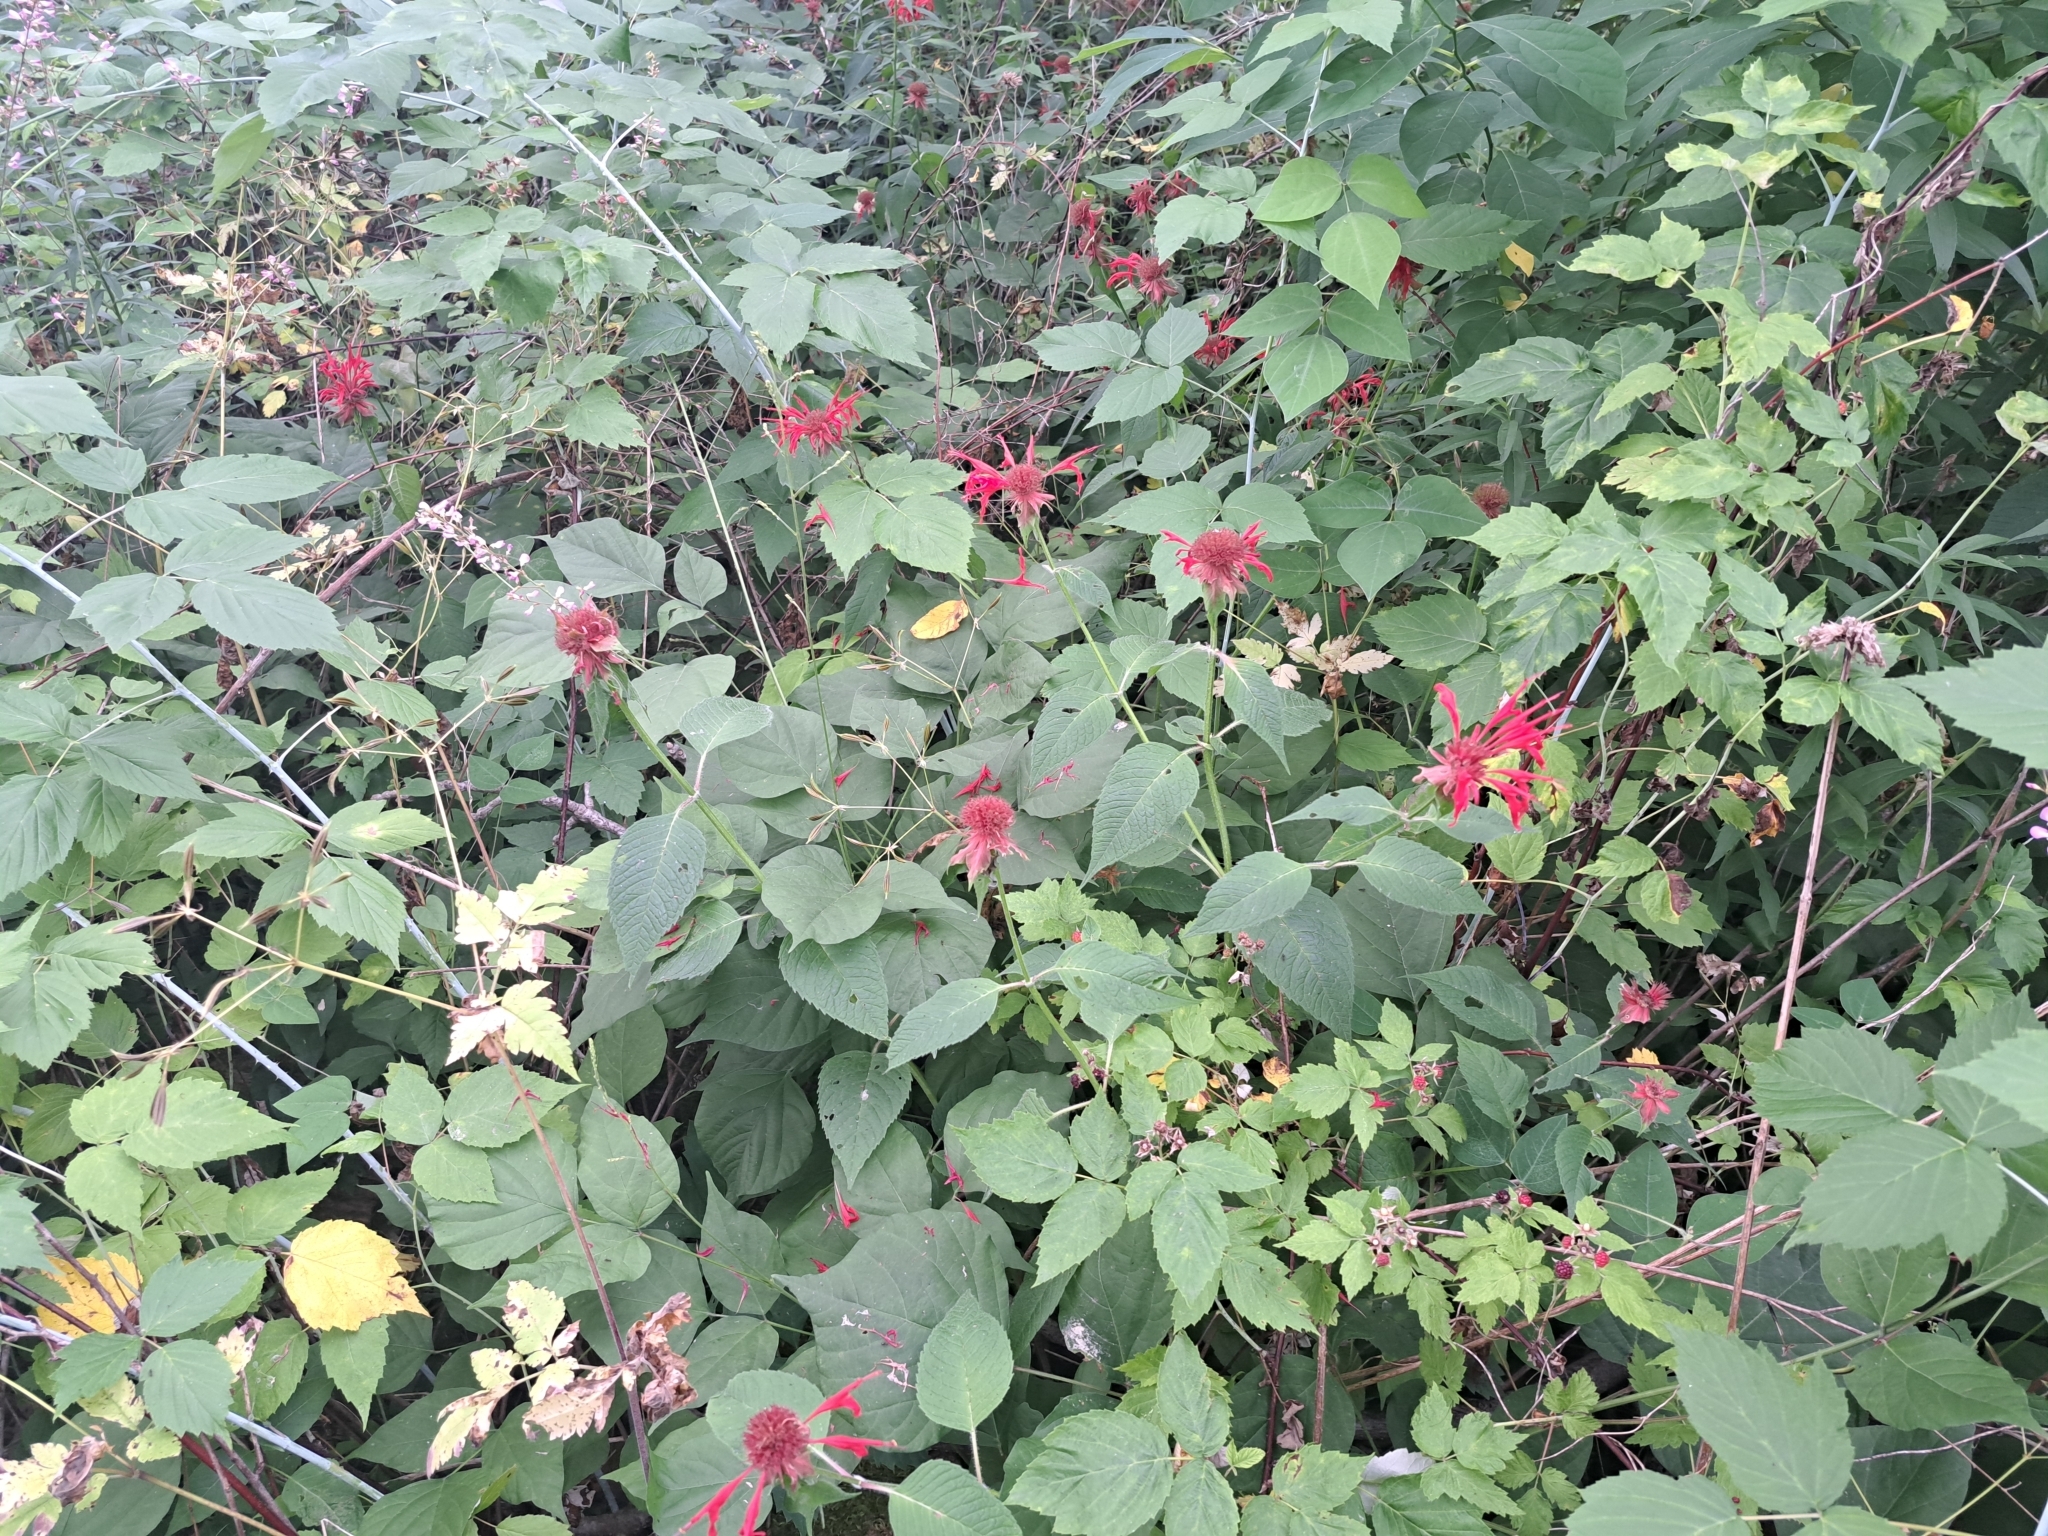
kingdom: Plantae
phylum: Tracheophyta
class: Magnoliopsida
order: Lamiales
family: Lamiaceae
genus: Monarda
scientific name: Monarda didyma
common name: Beebalm
